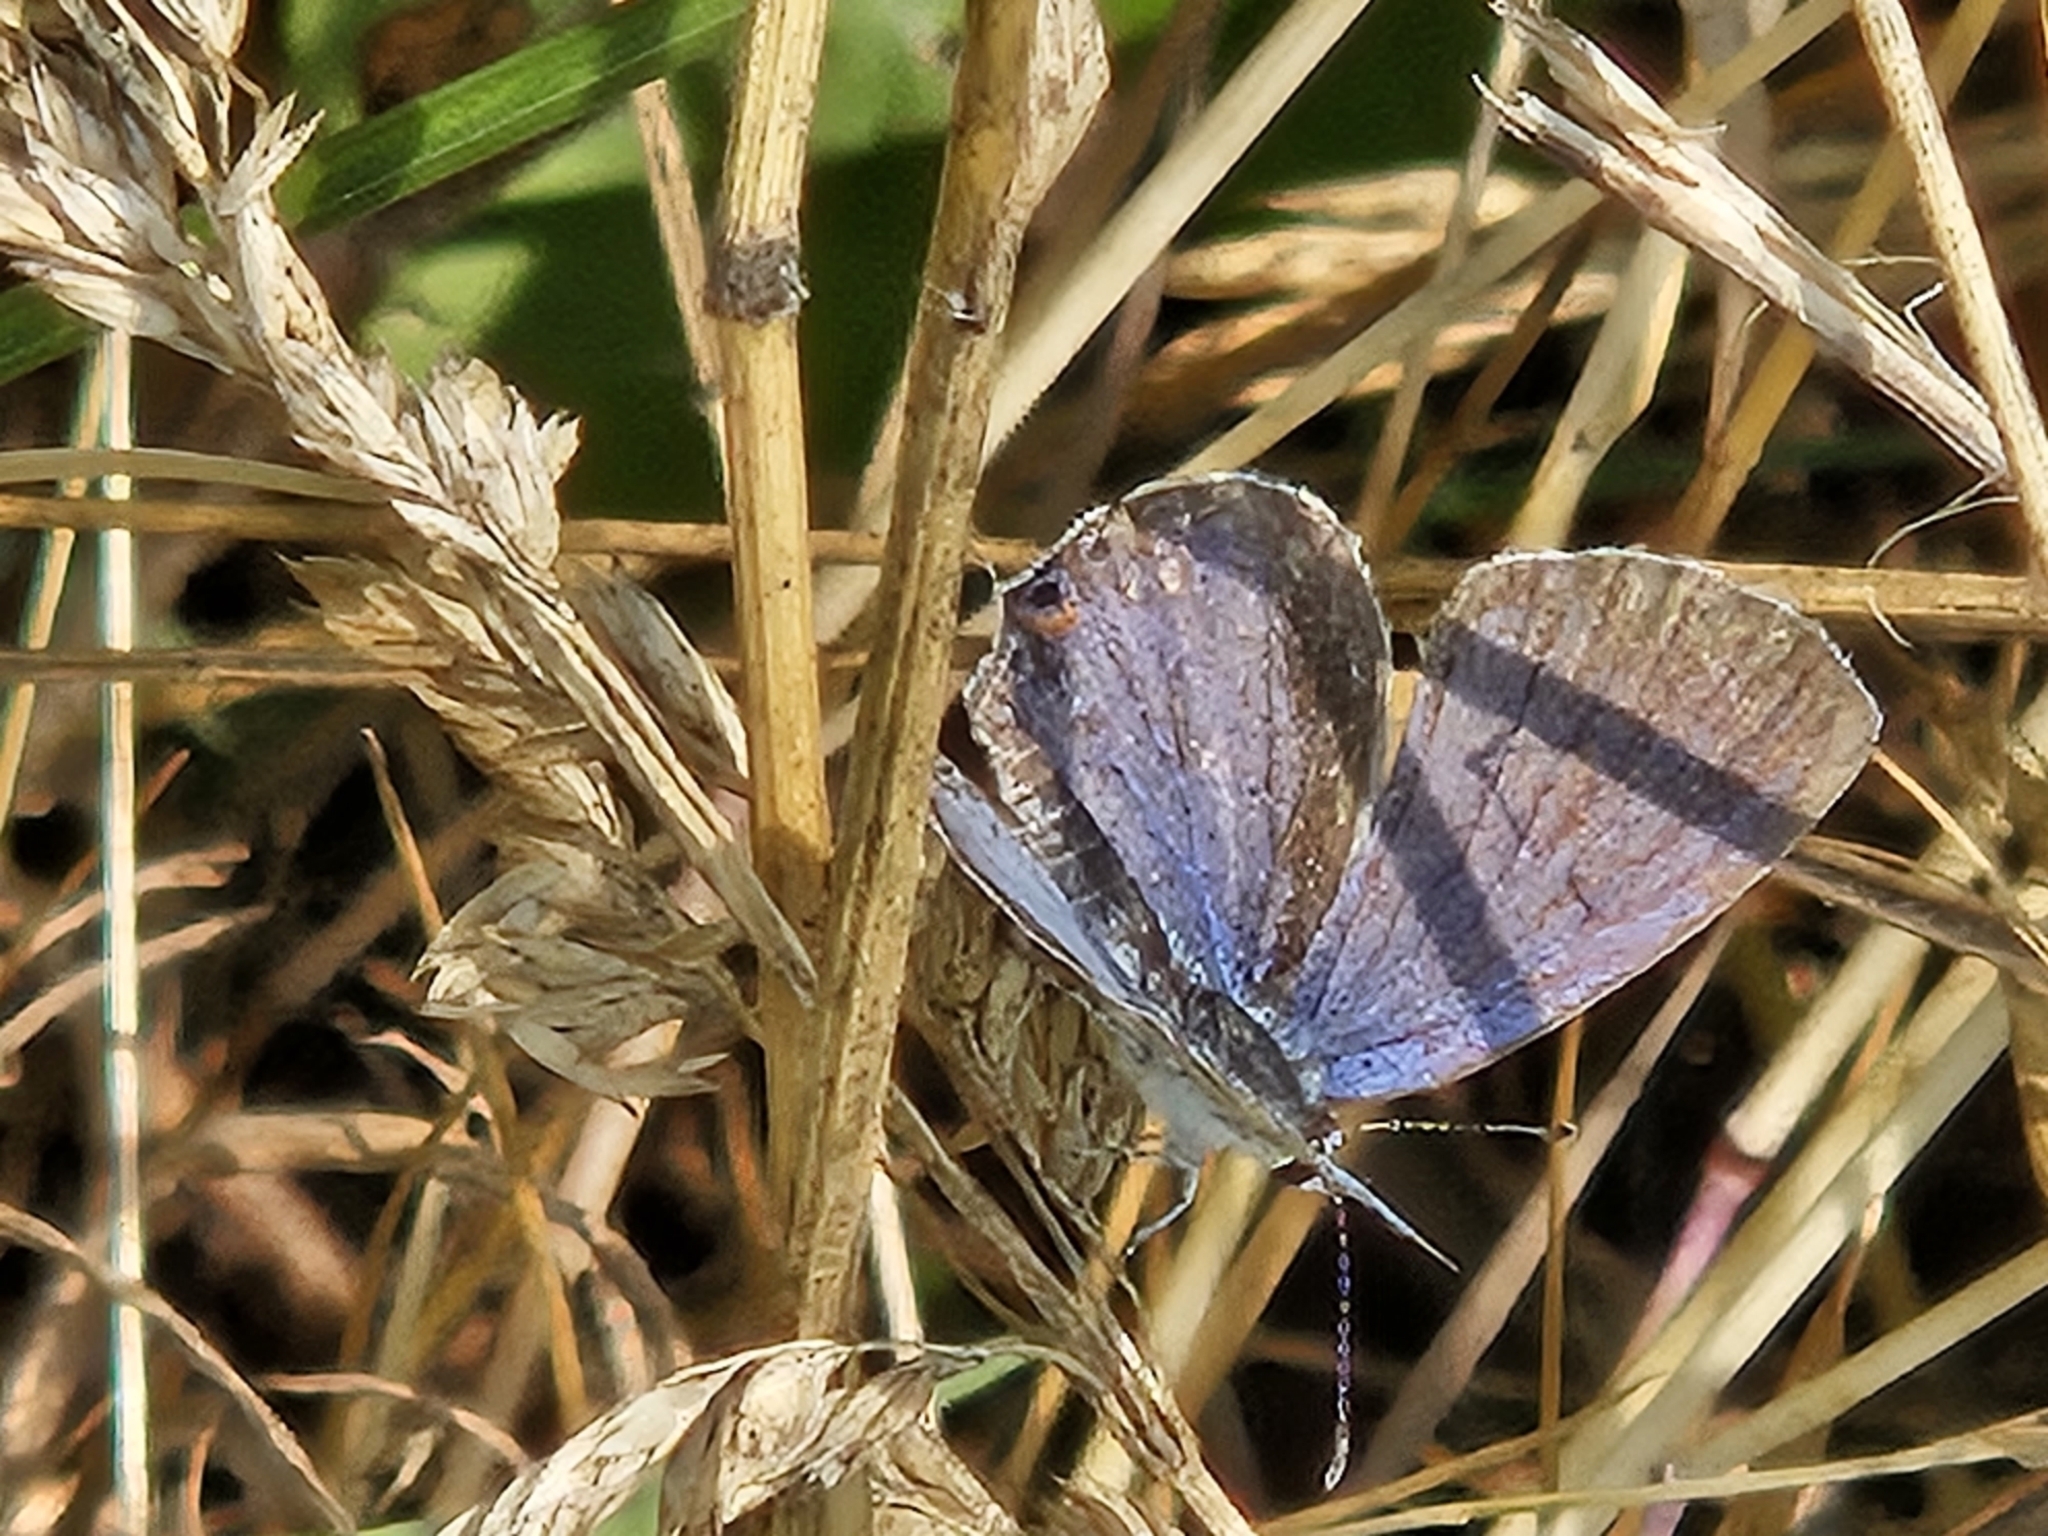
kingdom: Animalia
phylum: Arthropoda
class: Insecta
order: Lepidoptera
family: Lycaenidae
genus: Elkalyce
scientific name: Elkalyce comyntas
